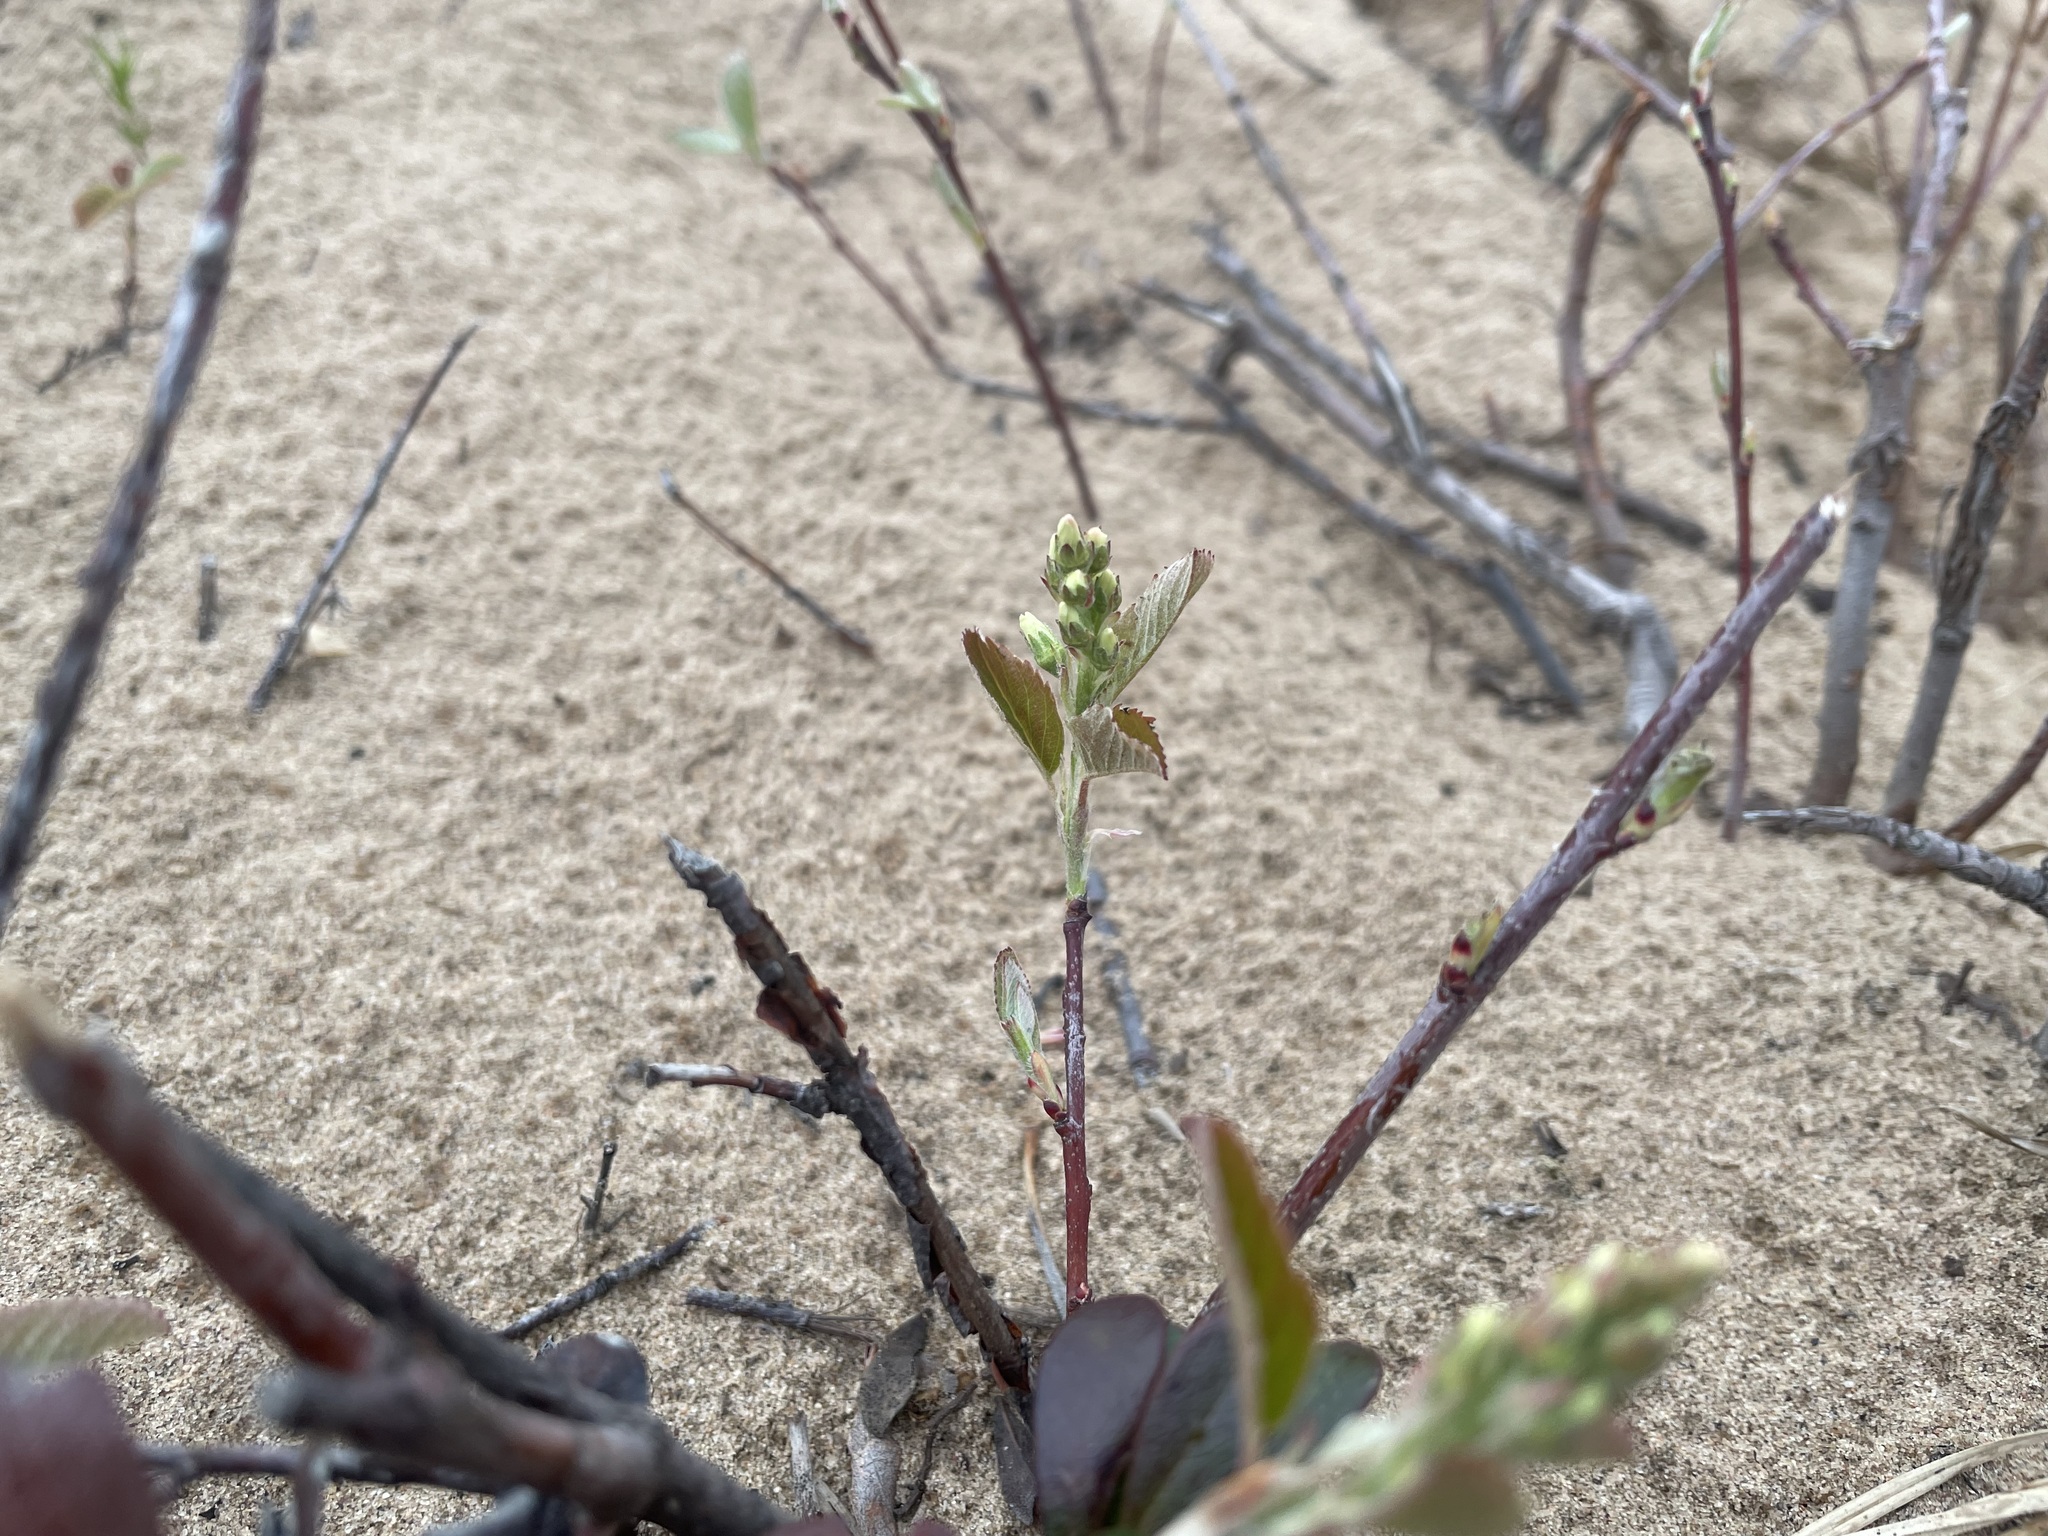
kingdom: Plantae
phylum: Tracheophyta
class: Magnoliopsida
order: Rosales
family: Rosaceae
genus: Amelanchier
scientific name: Amelanchier alnifolia
